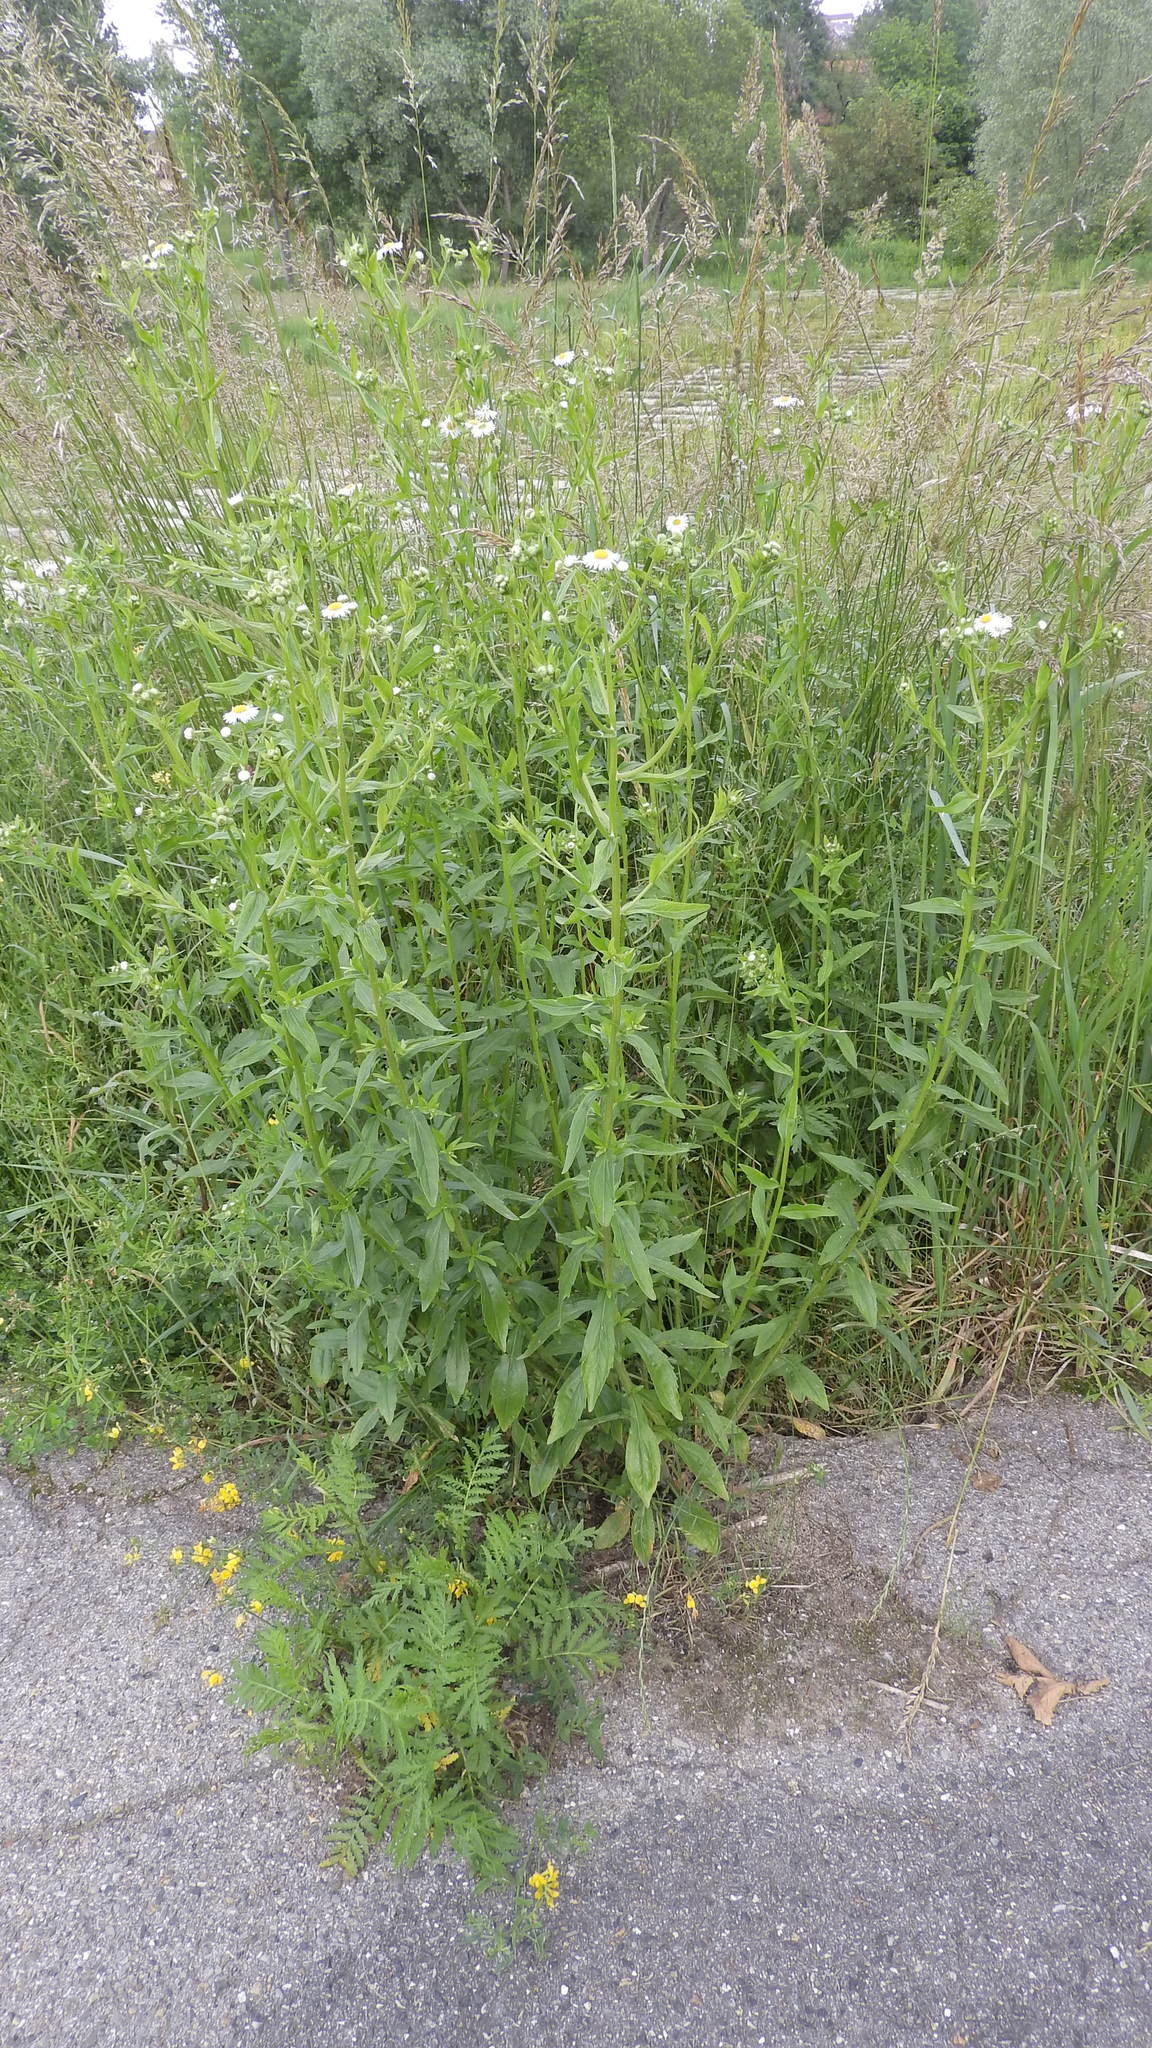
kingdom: Plantae
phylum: Tracheophyta
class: Magnoliopsida
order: Asterales
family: Asteraceae
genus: Erigeron
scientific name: Erigeron annuus
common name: Tall fleabane
